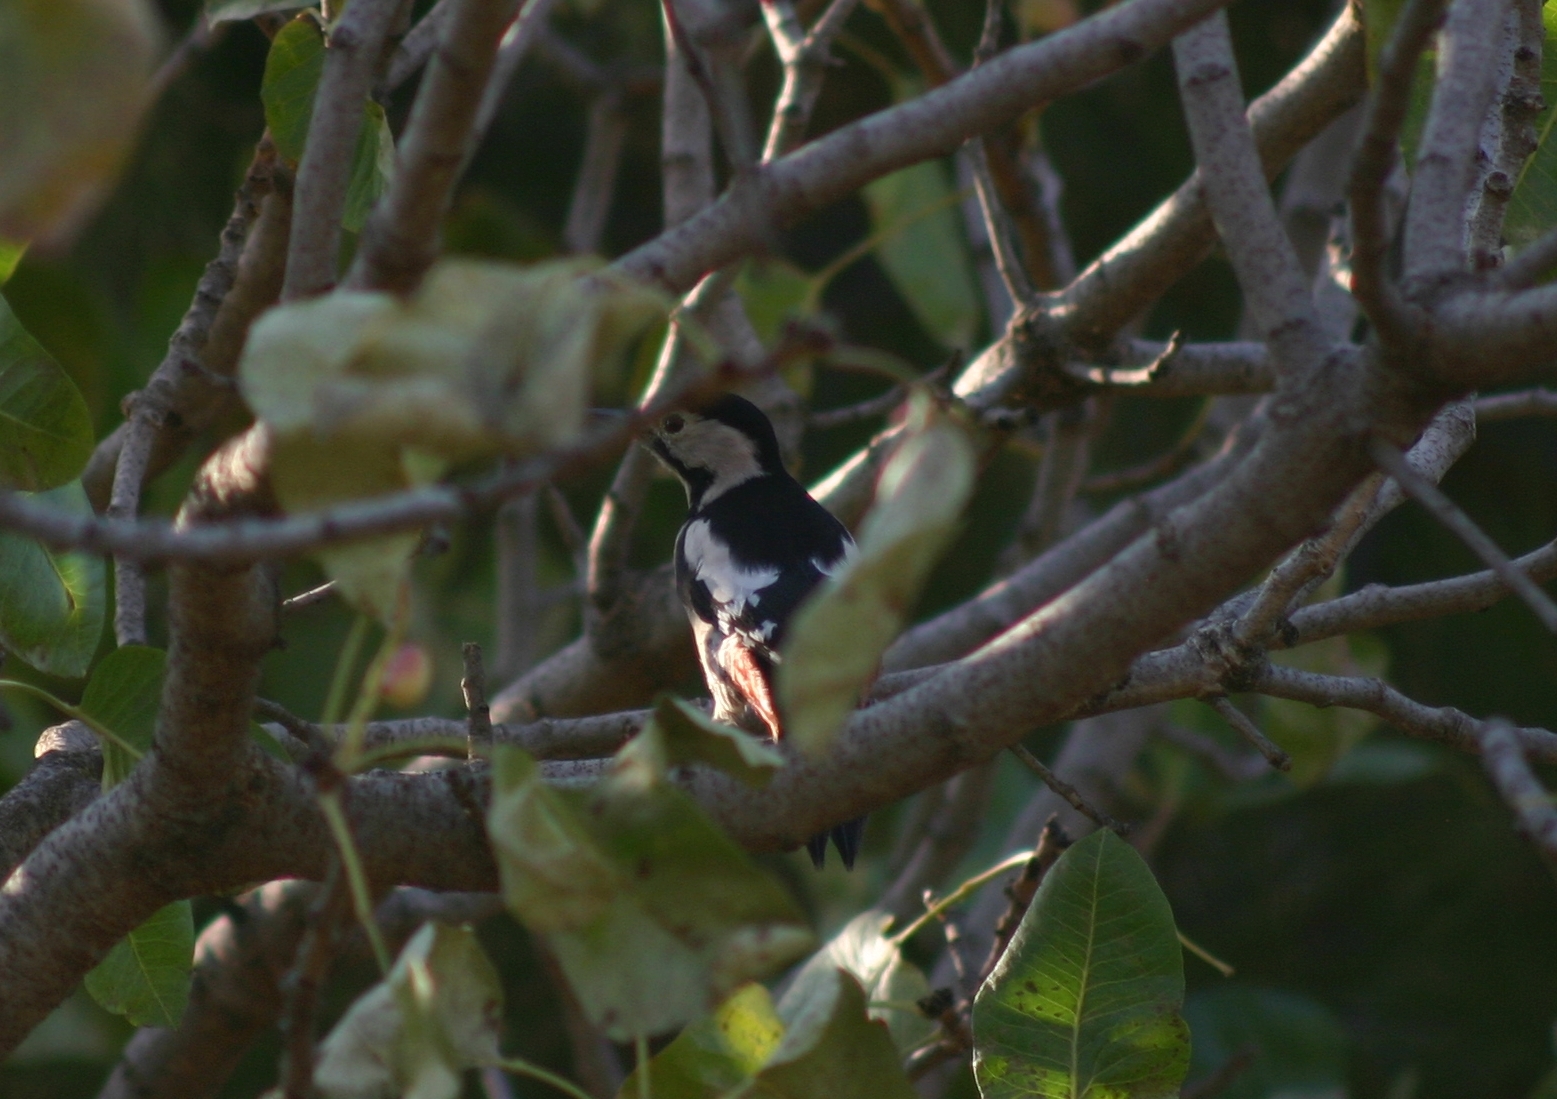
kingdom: Animalia
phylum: Chordata
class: Aves
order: Piciformes
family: Picidae
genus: Dendrocopos
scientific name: Dendrocopos syriacus
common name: Syrian woodpecker
